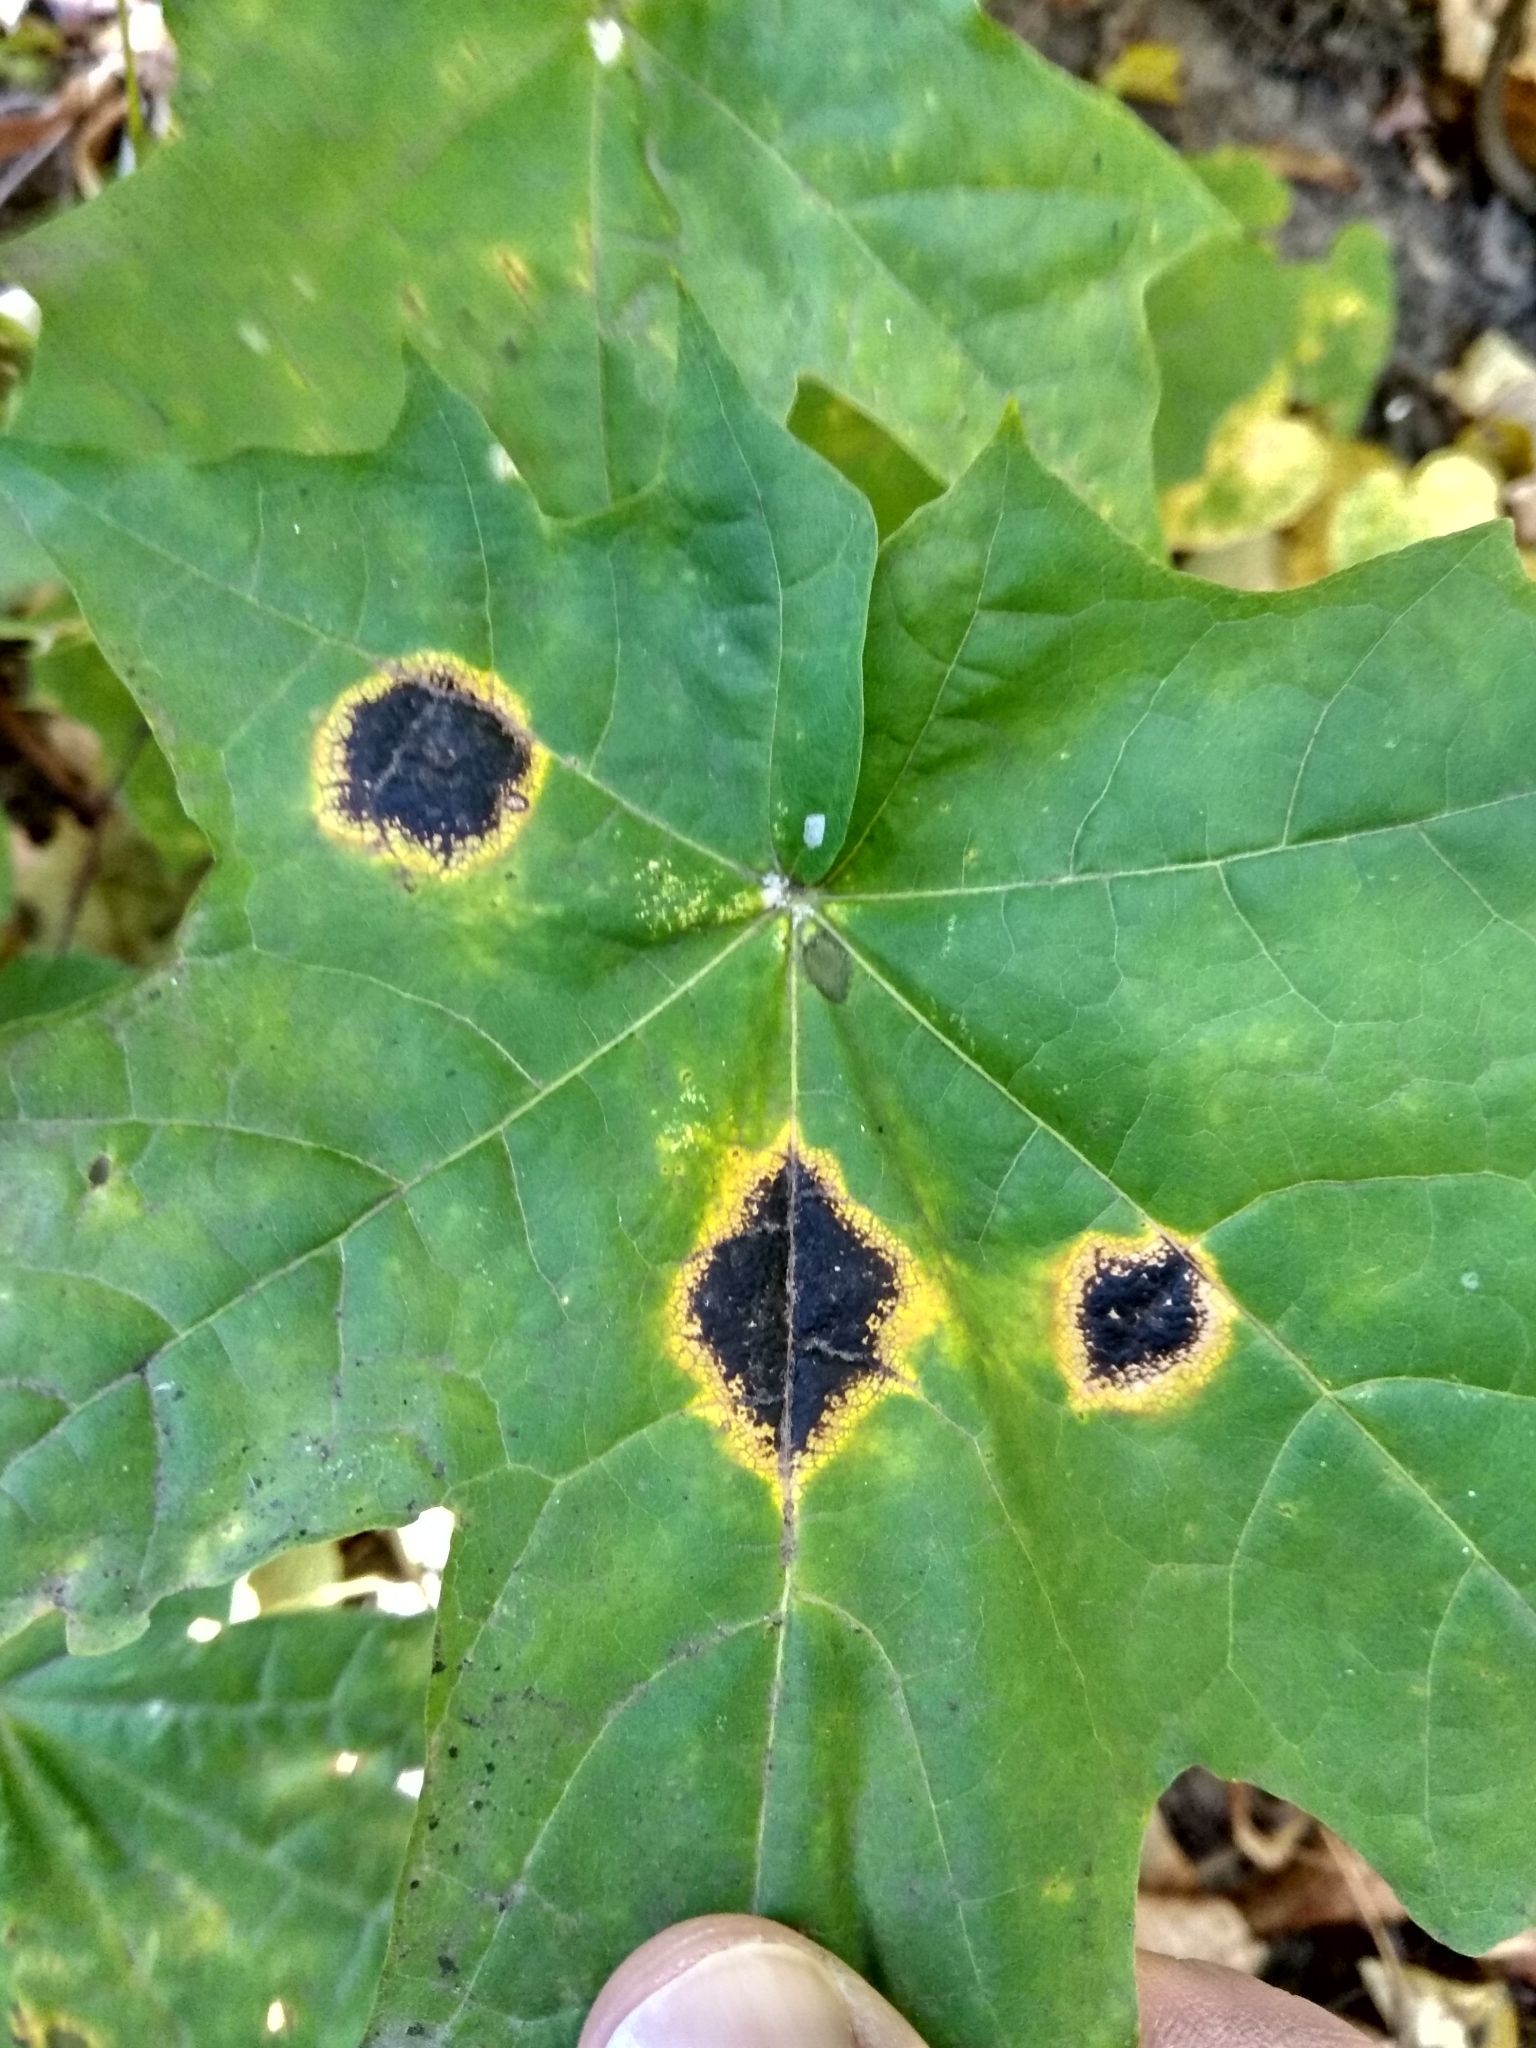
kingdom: Fungi
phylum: Ascomycota
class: Leotiomycetes
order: Rhytismatales
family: Rhytismataceae
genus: Rhytisma
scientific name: Rhytisma acerinum
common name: European tar spot
